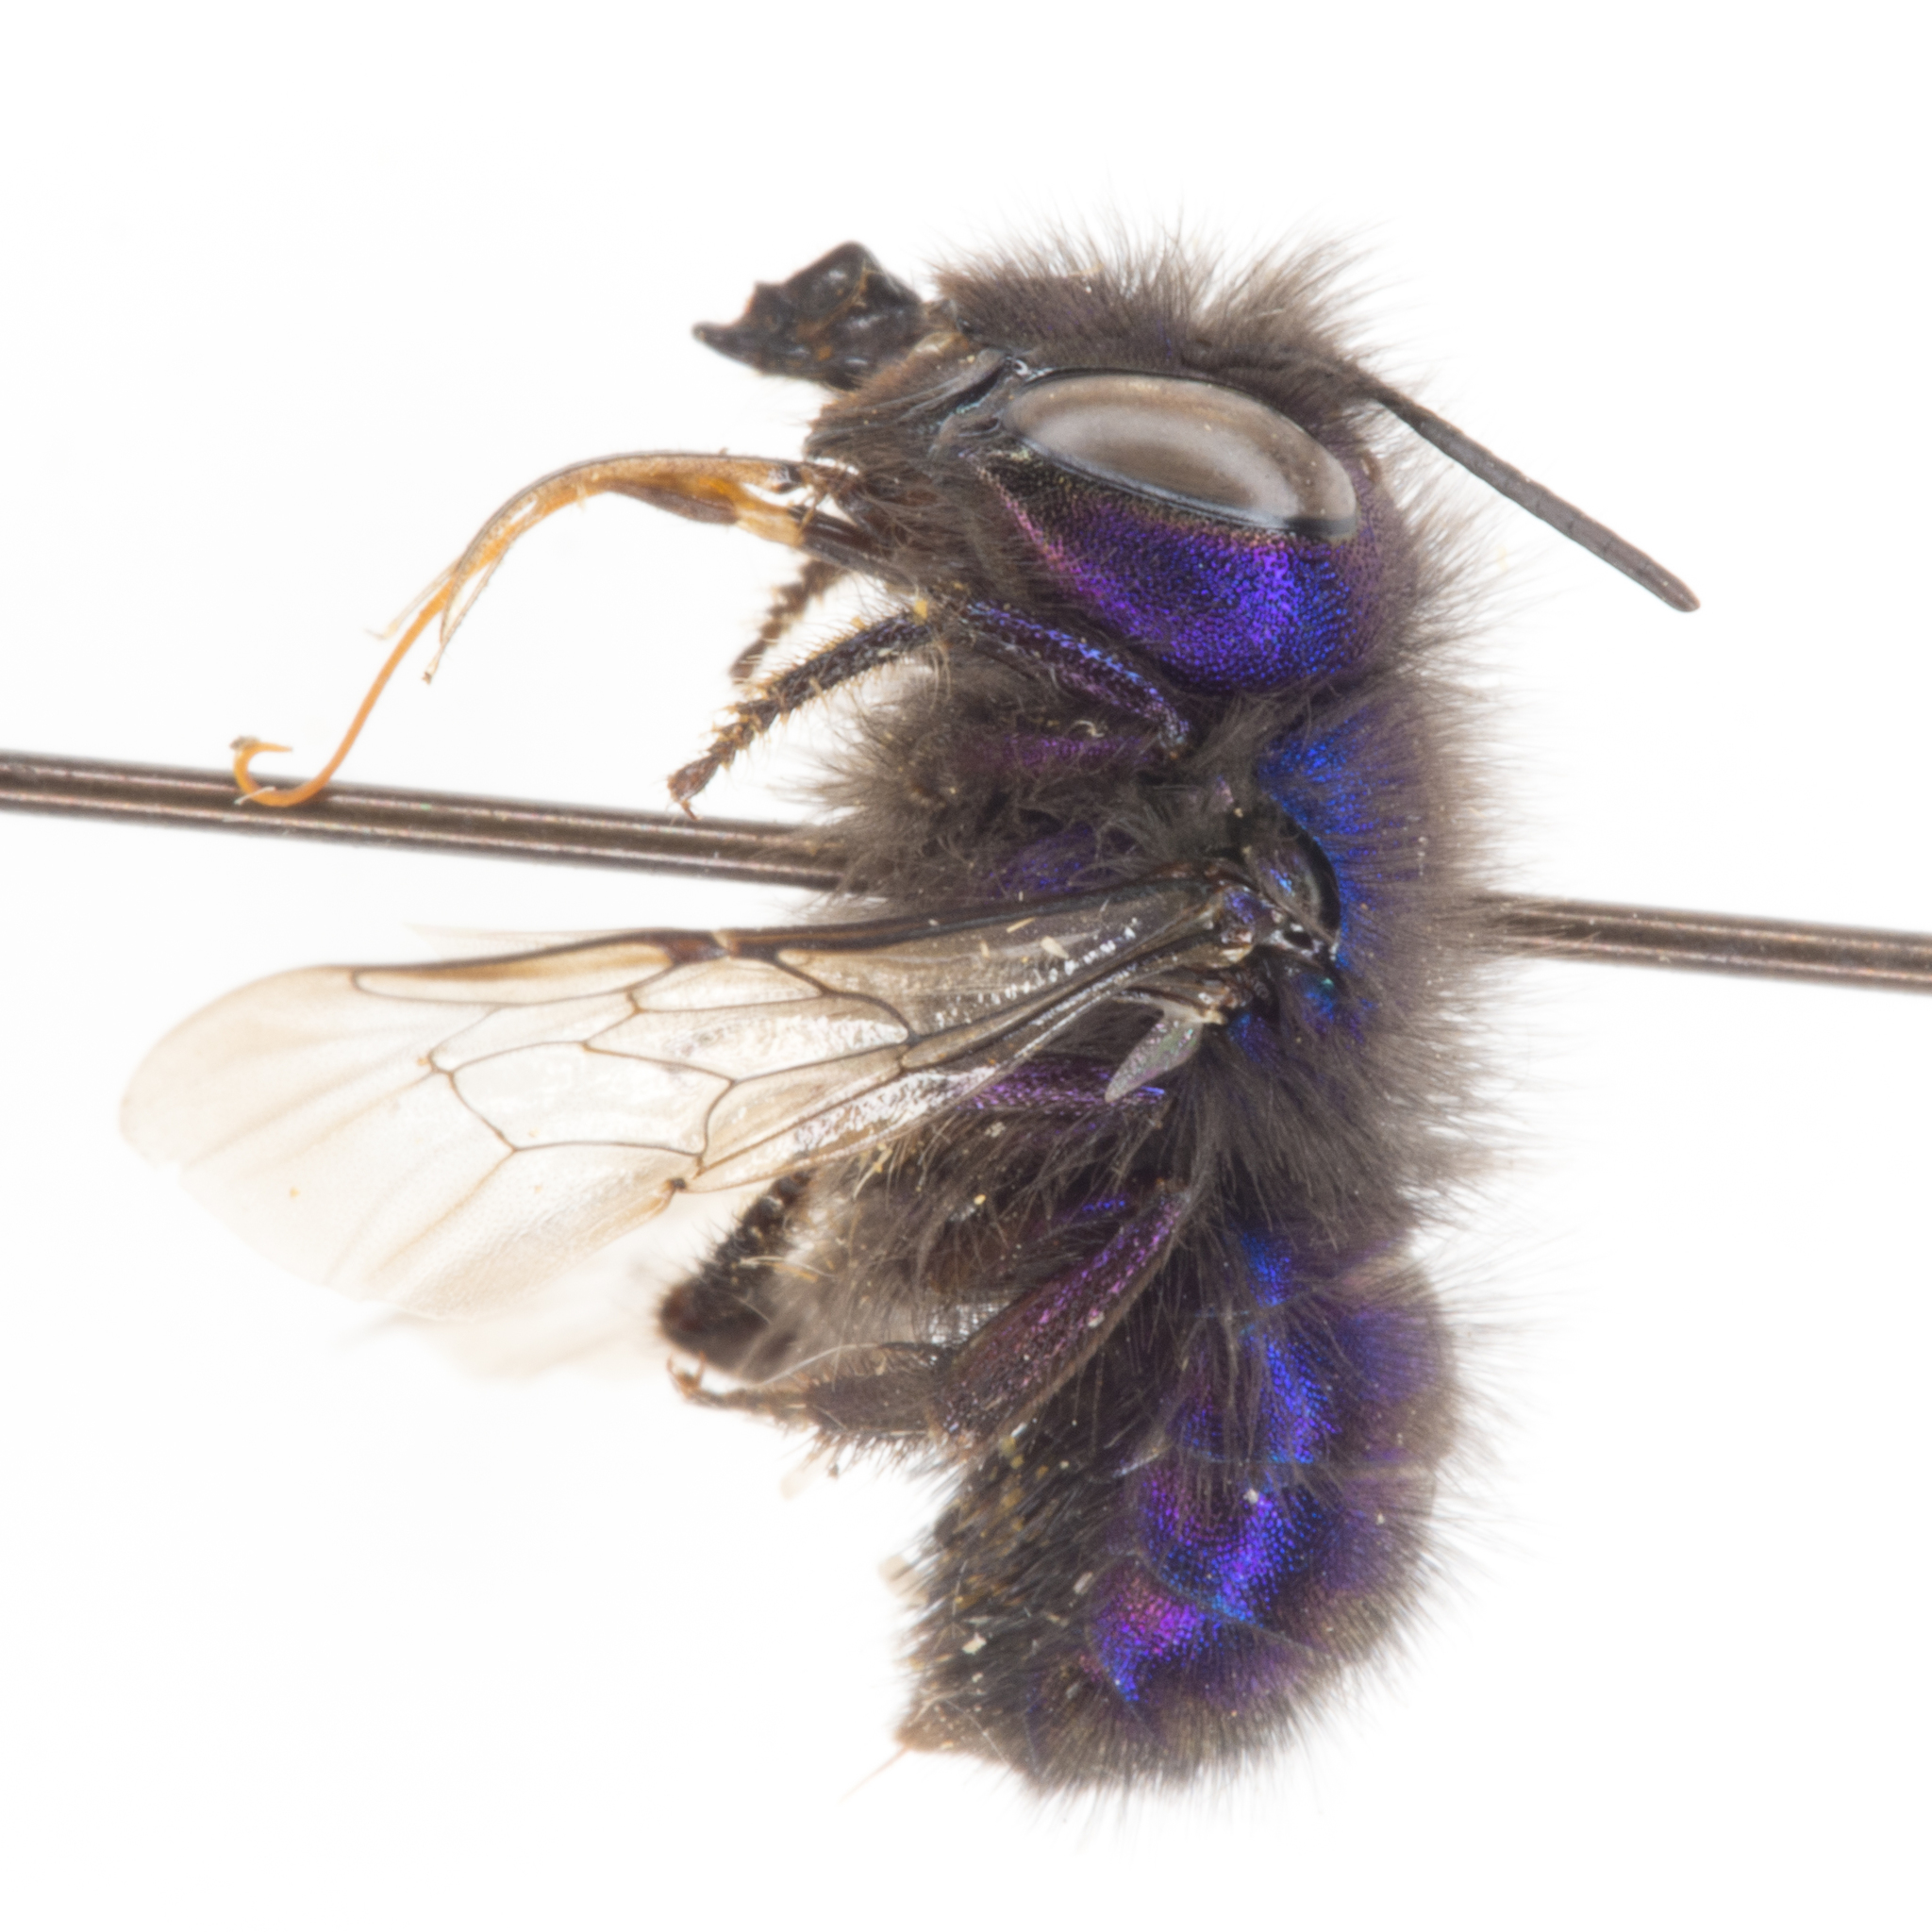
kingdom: Animalia
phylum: Arthropoda
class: Insecta
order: Hymenoptera
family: Megachilidae
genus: Osmia
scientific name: Osmia ribifloris
